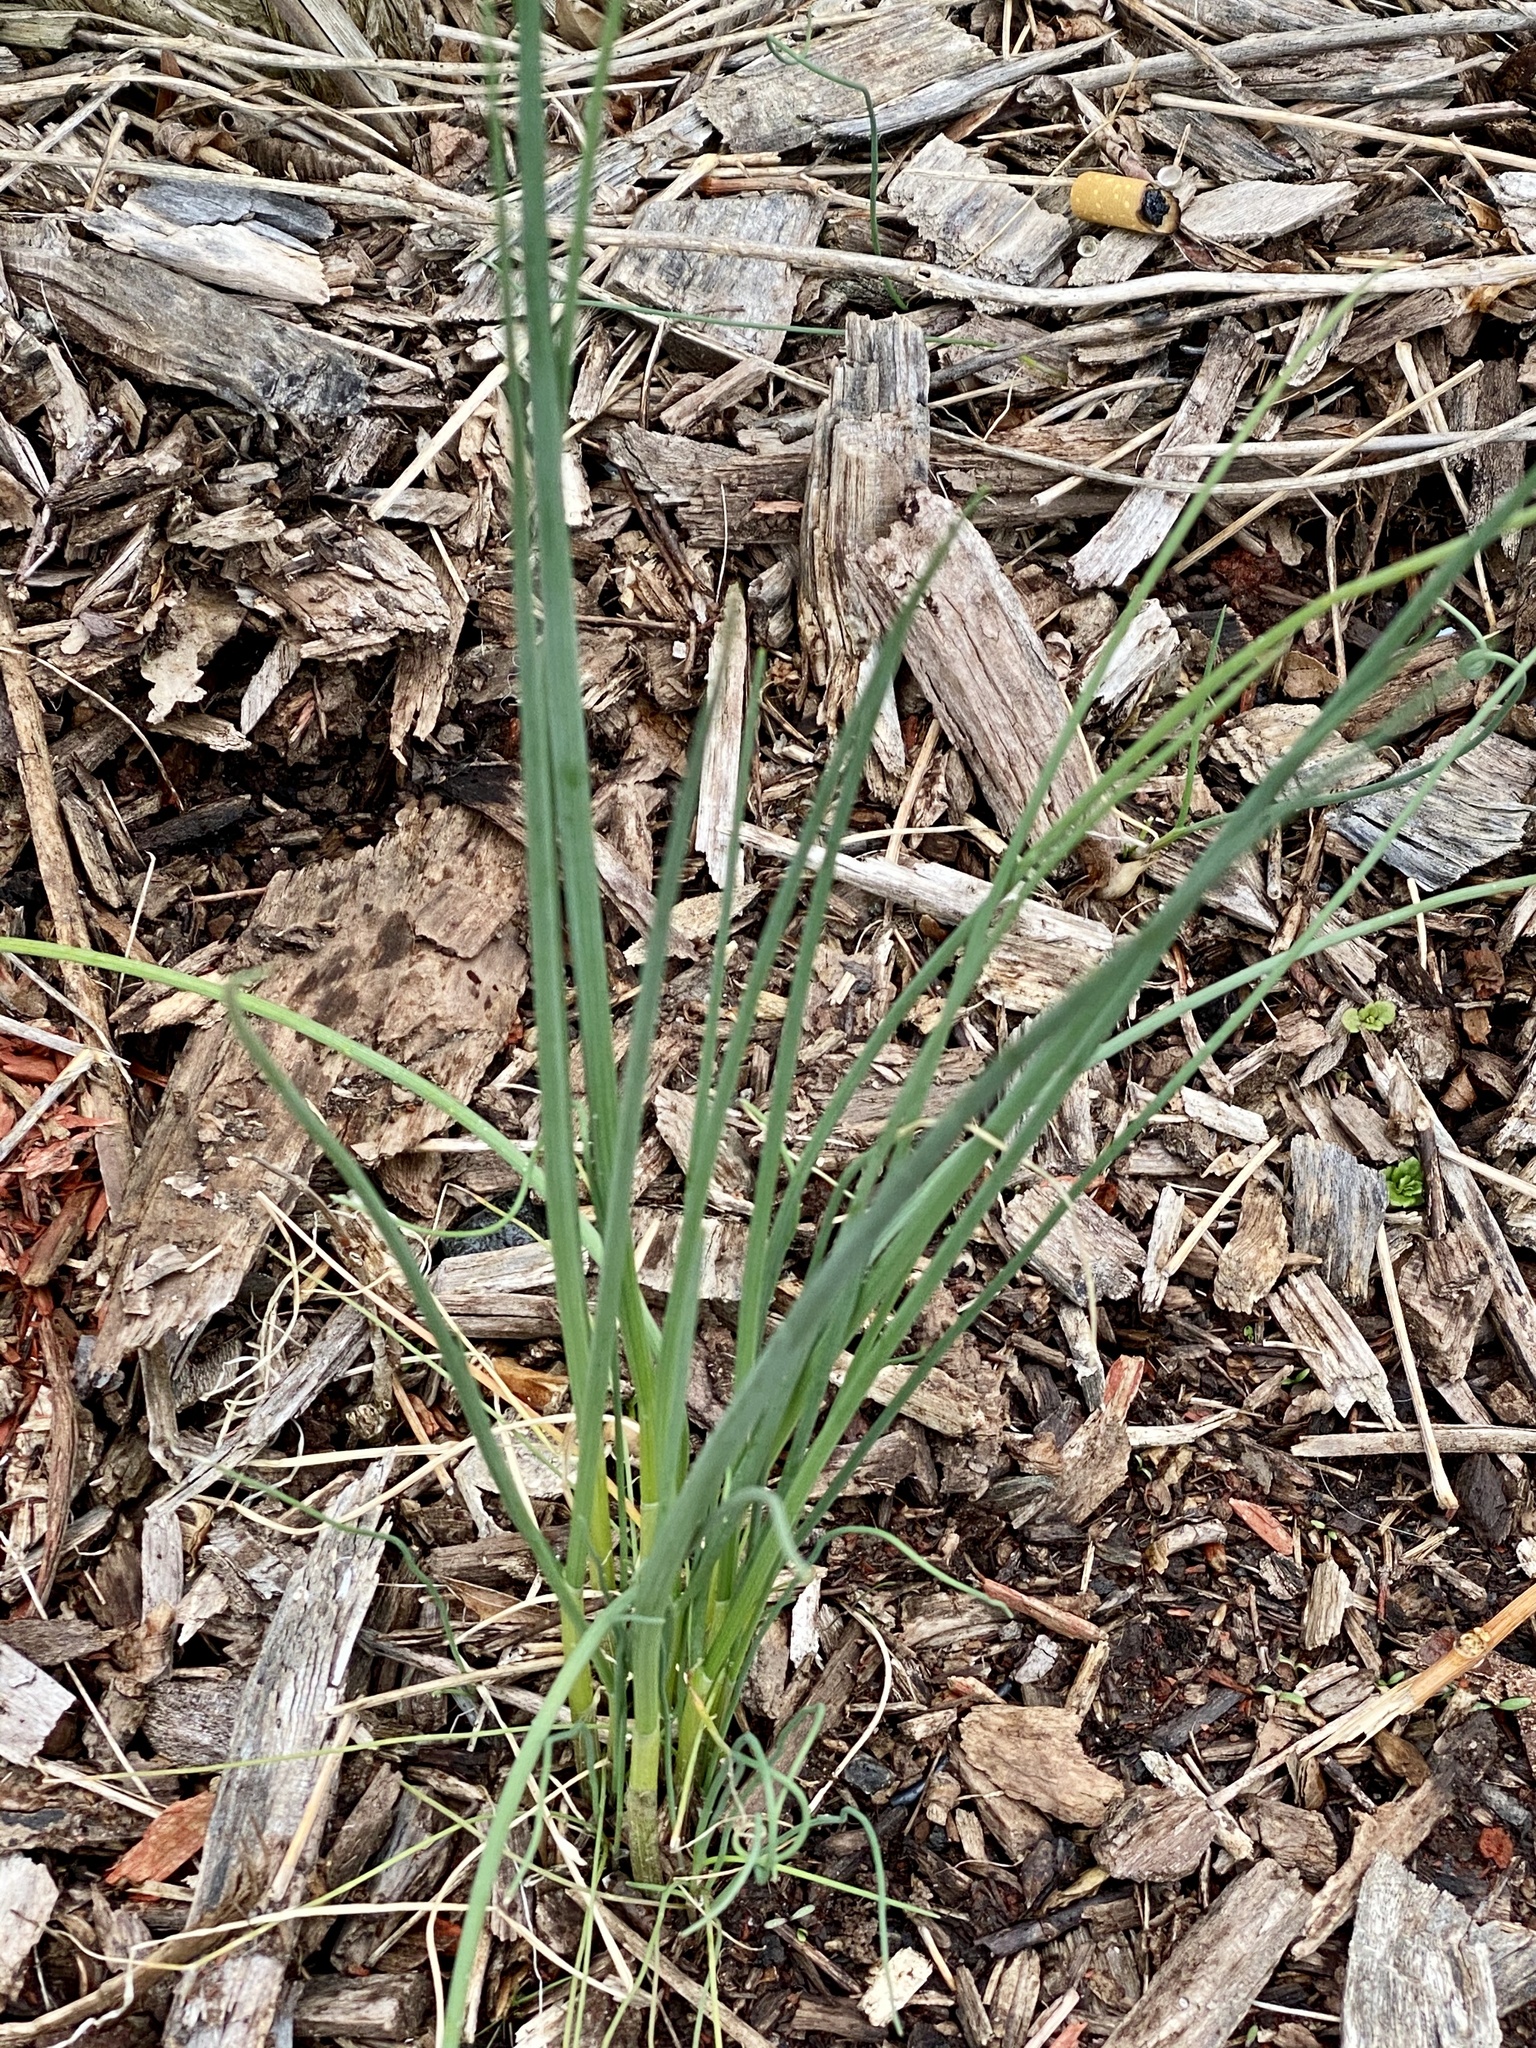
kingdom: Plantae
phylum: Tracheophyta
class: Liliopsida
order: Asparagales
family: Amaryllidaceae
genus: Allium
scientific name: Allium vineale
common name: Crow garlic
